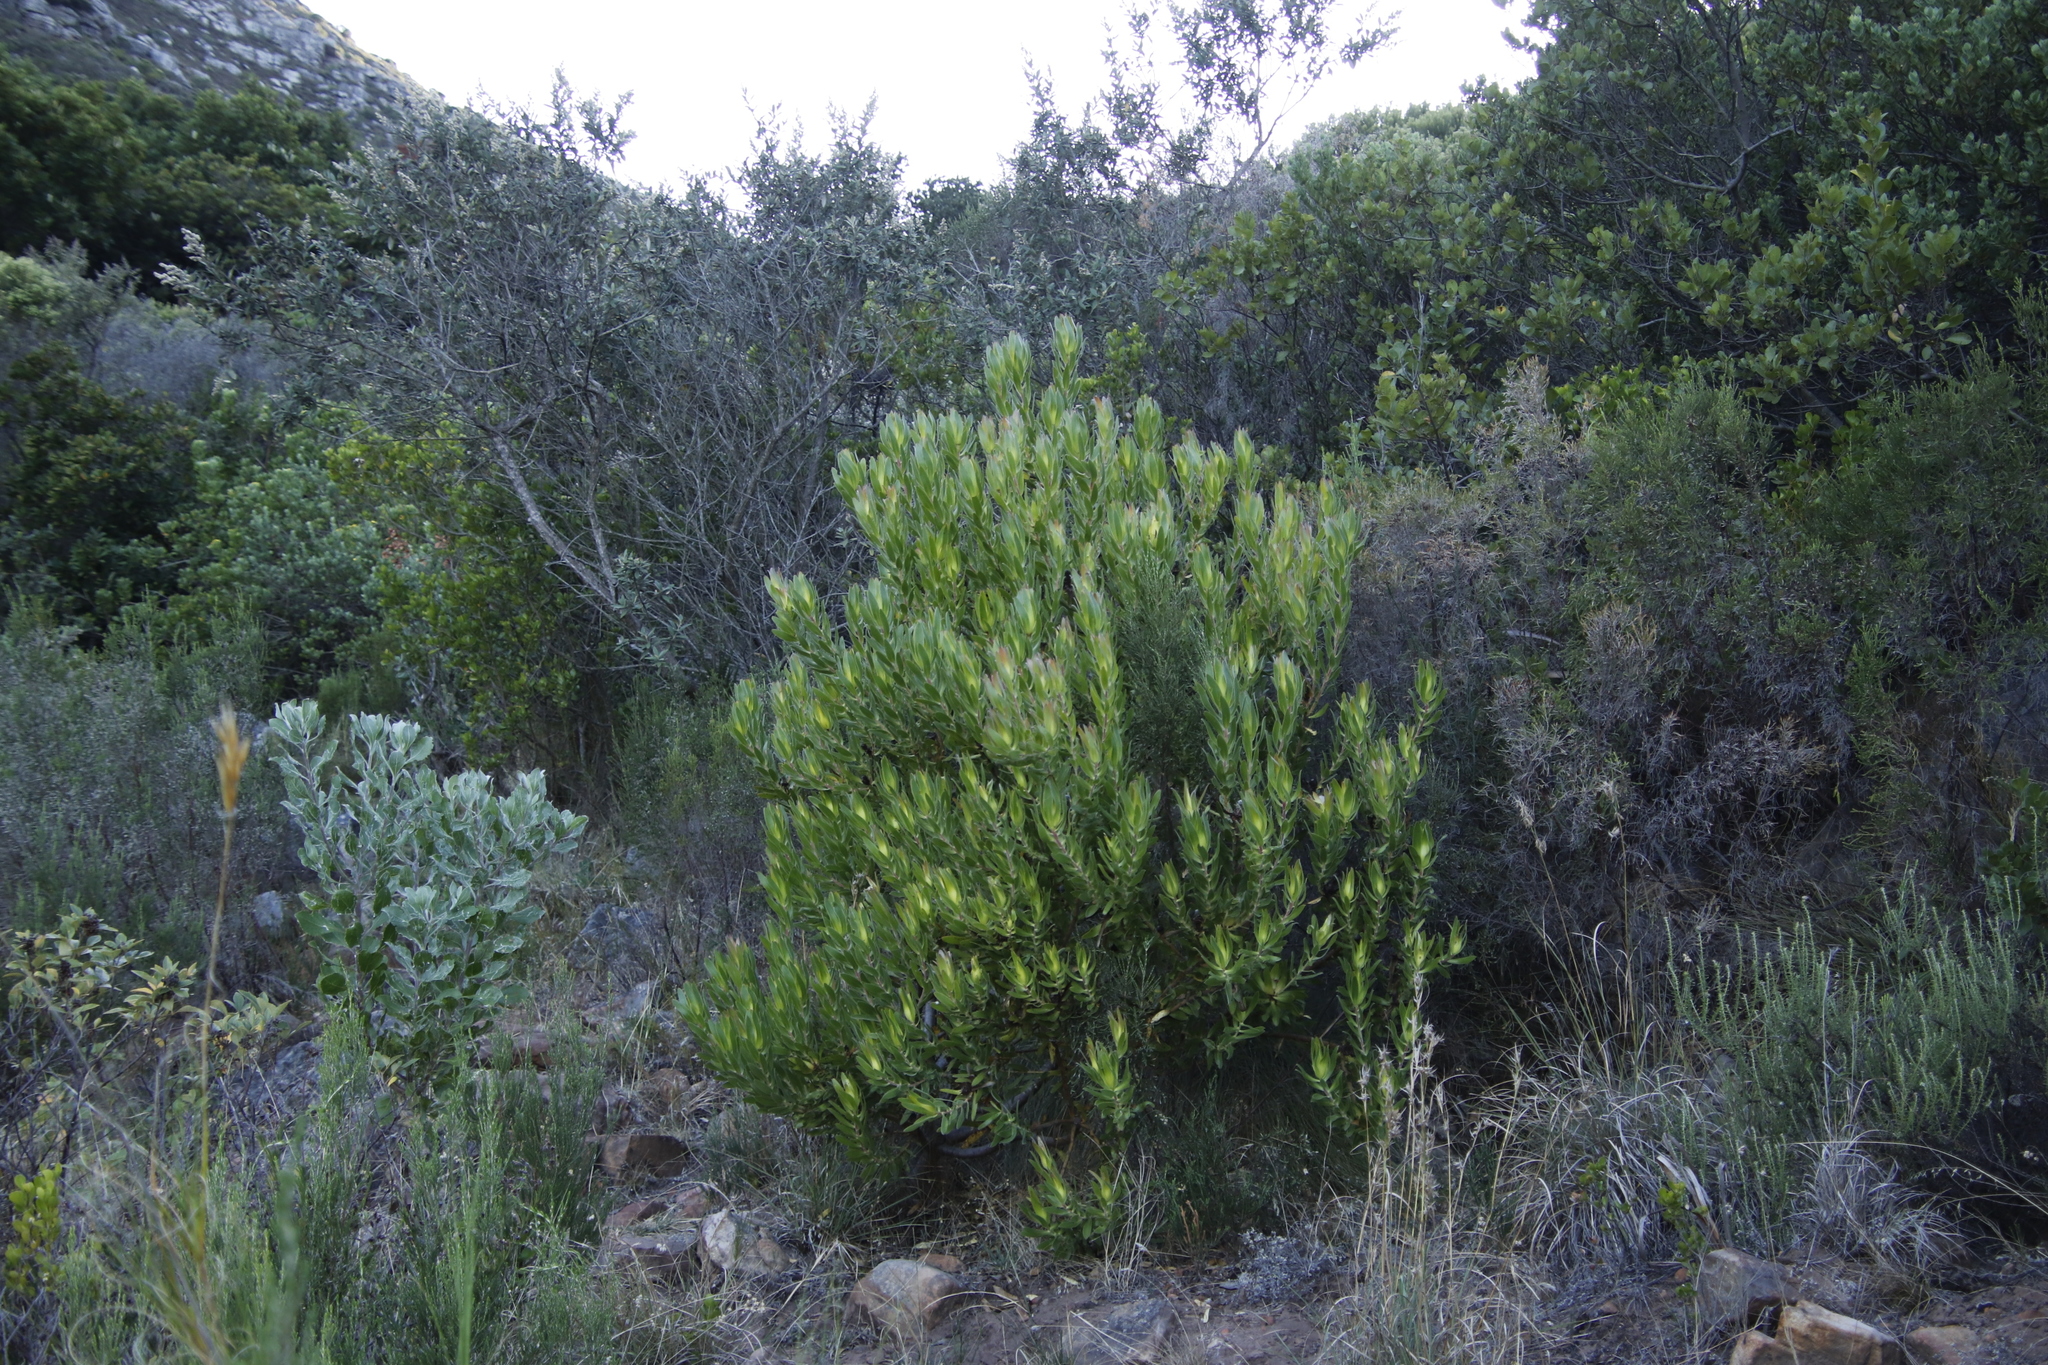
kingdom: Plantae
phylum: Tracheophyta
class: Magnoliopsida
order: Proteales
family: Proteaceae
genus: Leucadendron
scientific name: Leucadendron laureolum
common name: Golden sunshinebush
